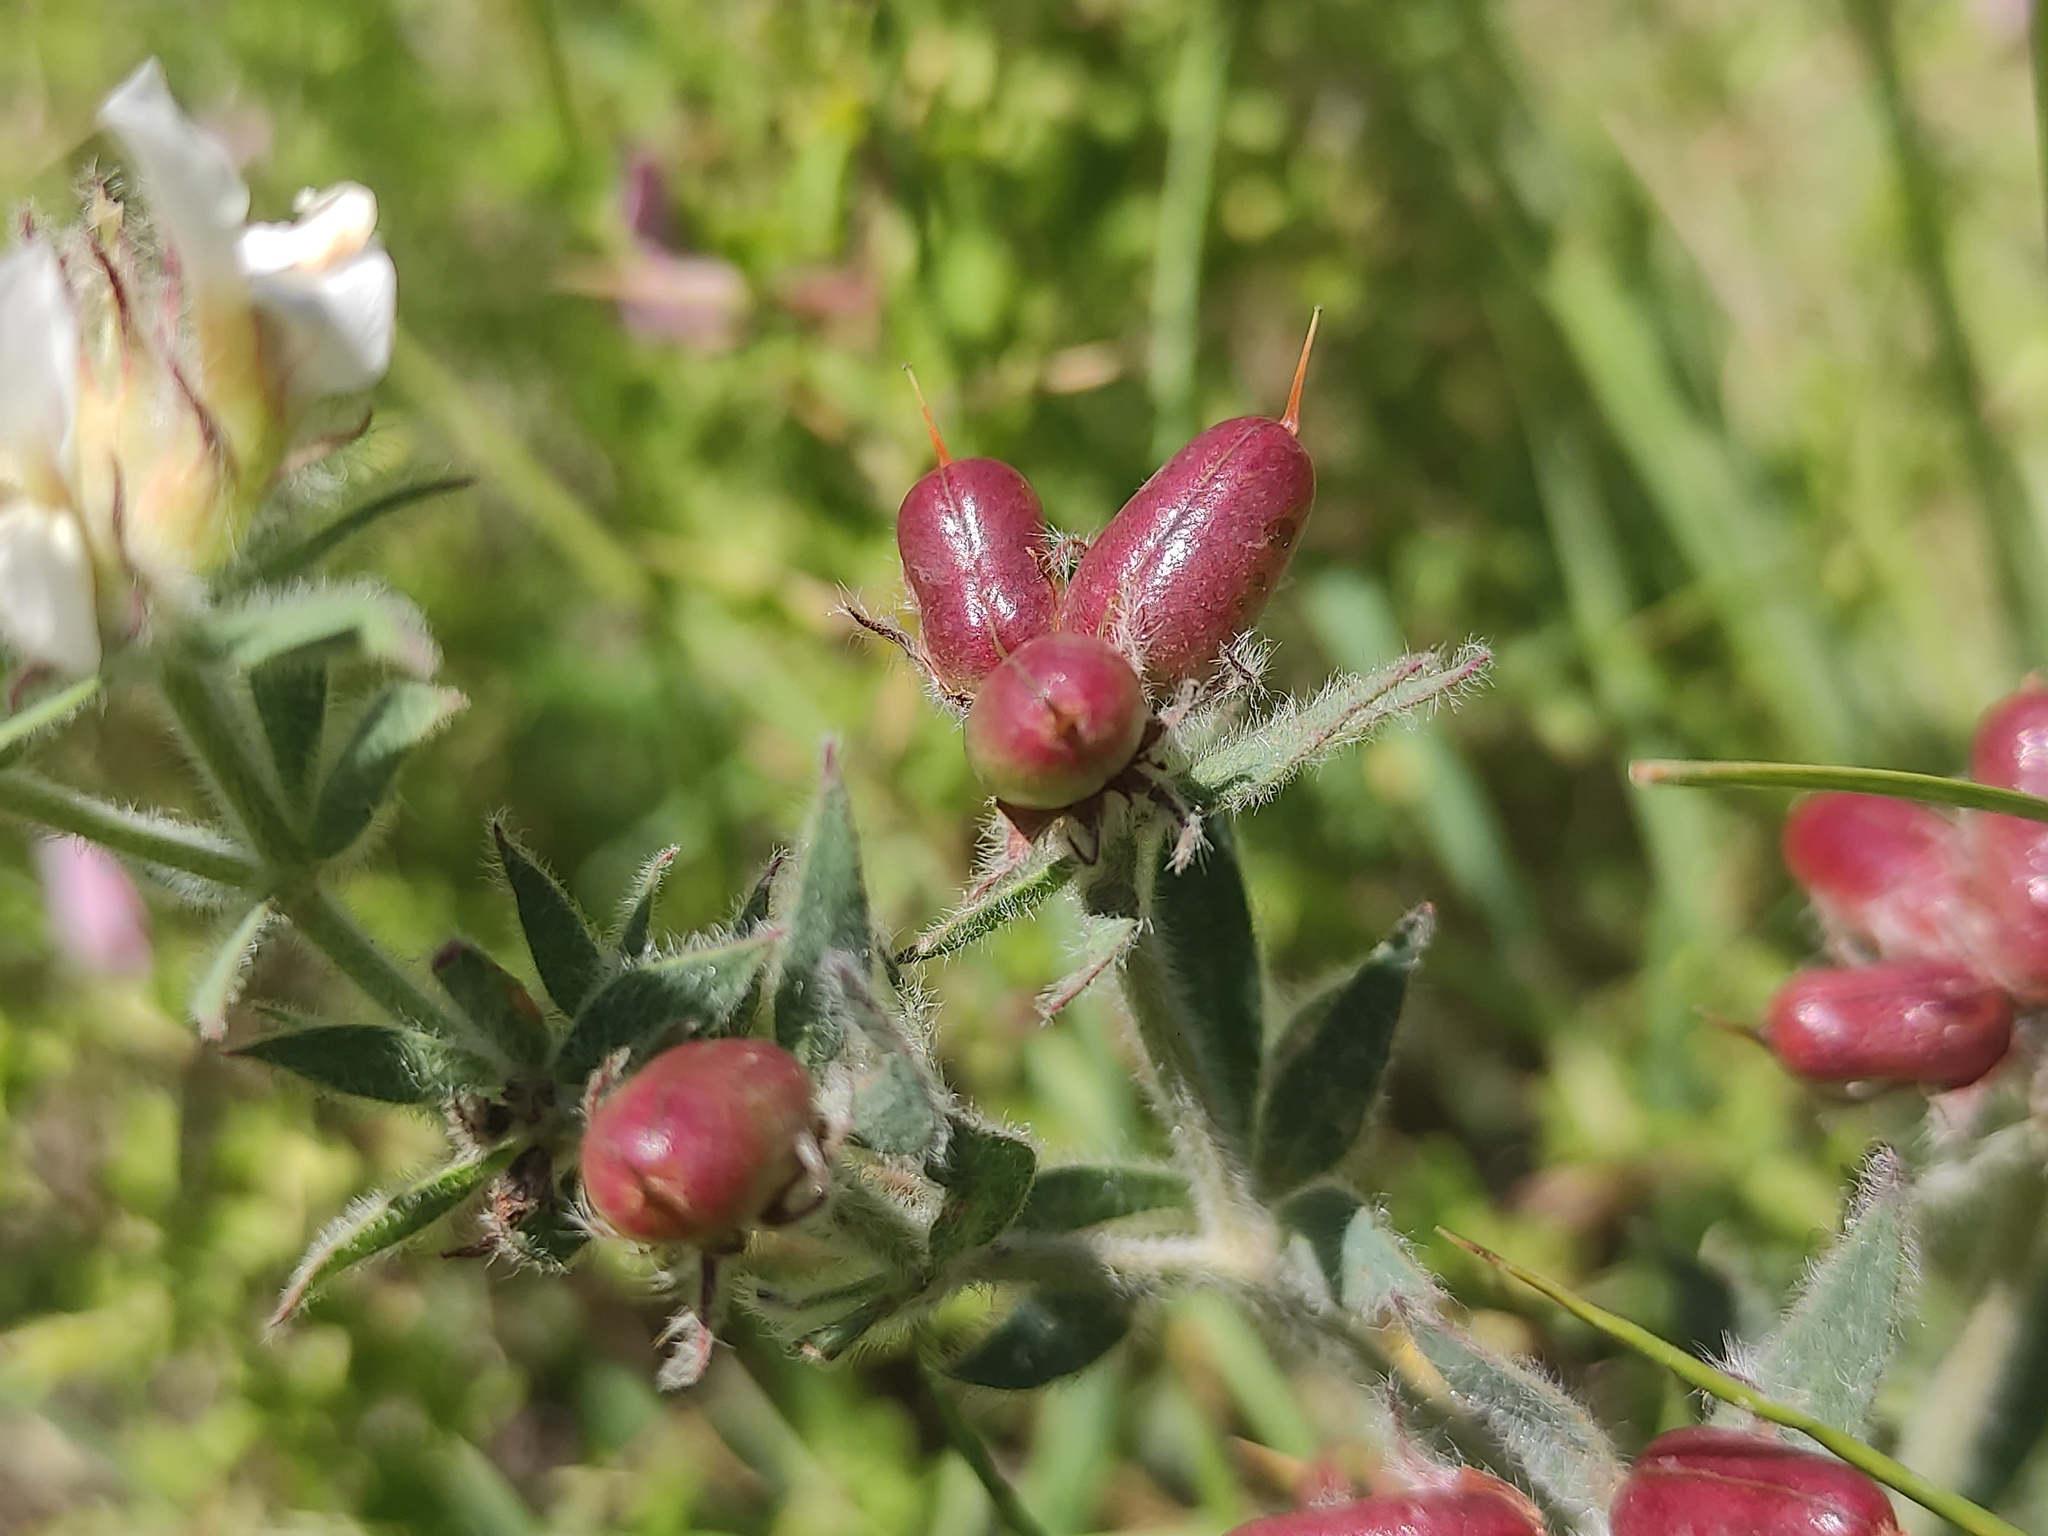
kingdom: Plantae
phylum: Tracheophyta
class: Magnoliopsida
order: Fabales
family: Fabaceae
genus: Lotus
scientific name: Lotus hirsutus
